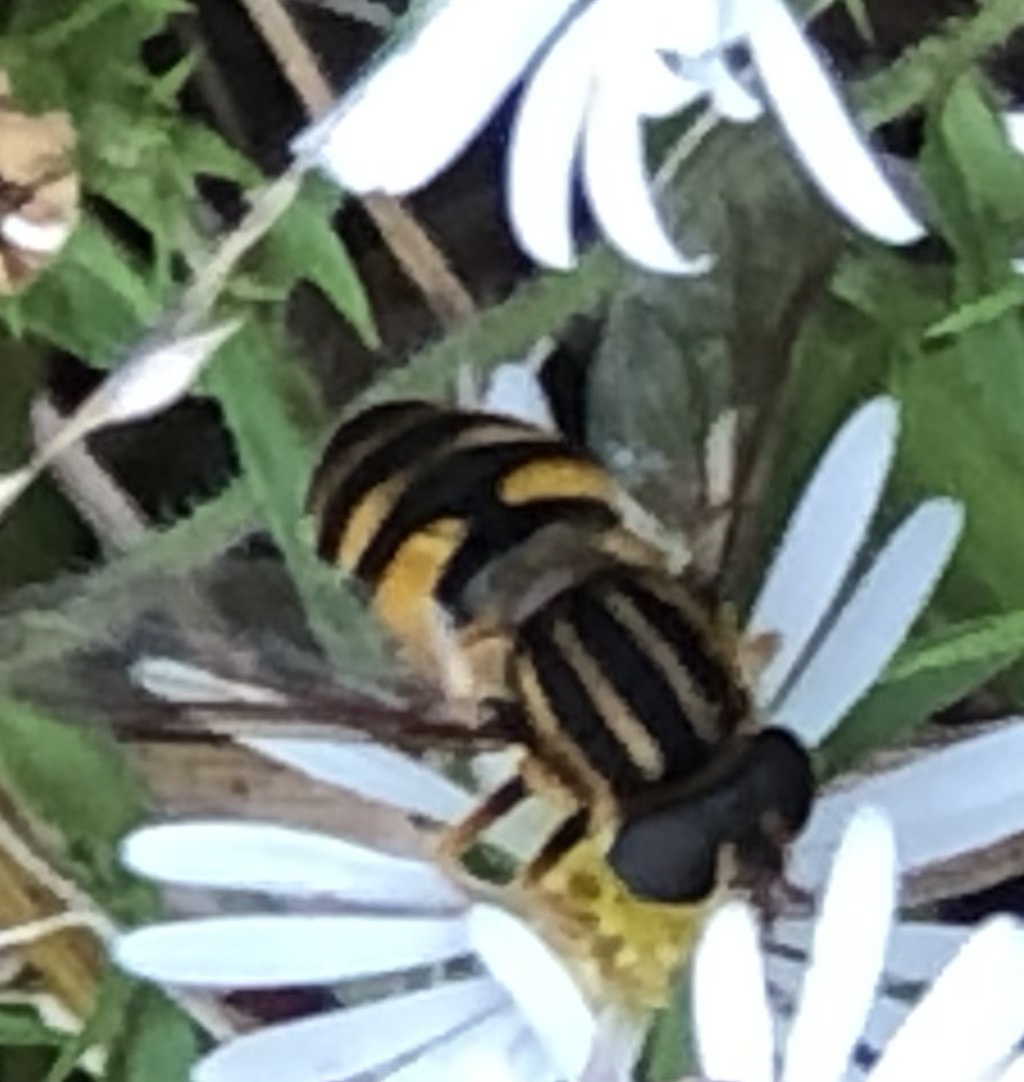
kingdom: Animalia
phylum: Arthropoda
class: Insecta
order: Diptera
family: Syrphidae
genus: Helophilus
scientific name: Helophilus fasciatus
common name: Narrow-headed marsh fly
